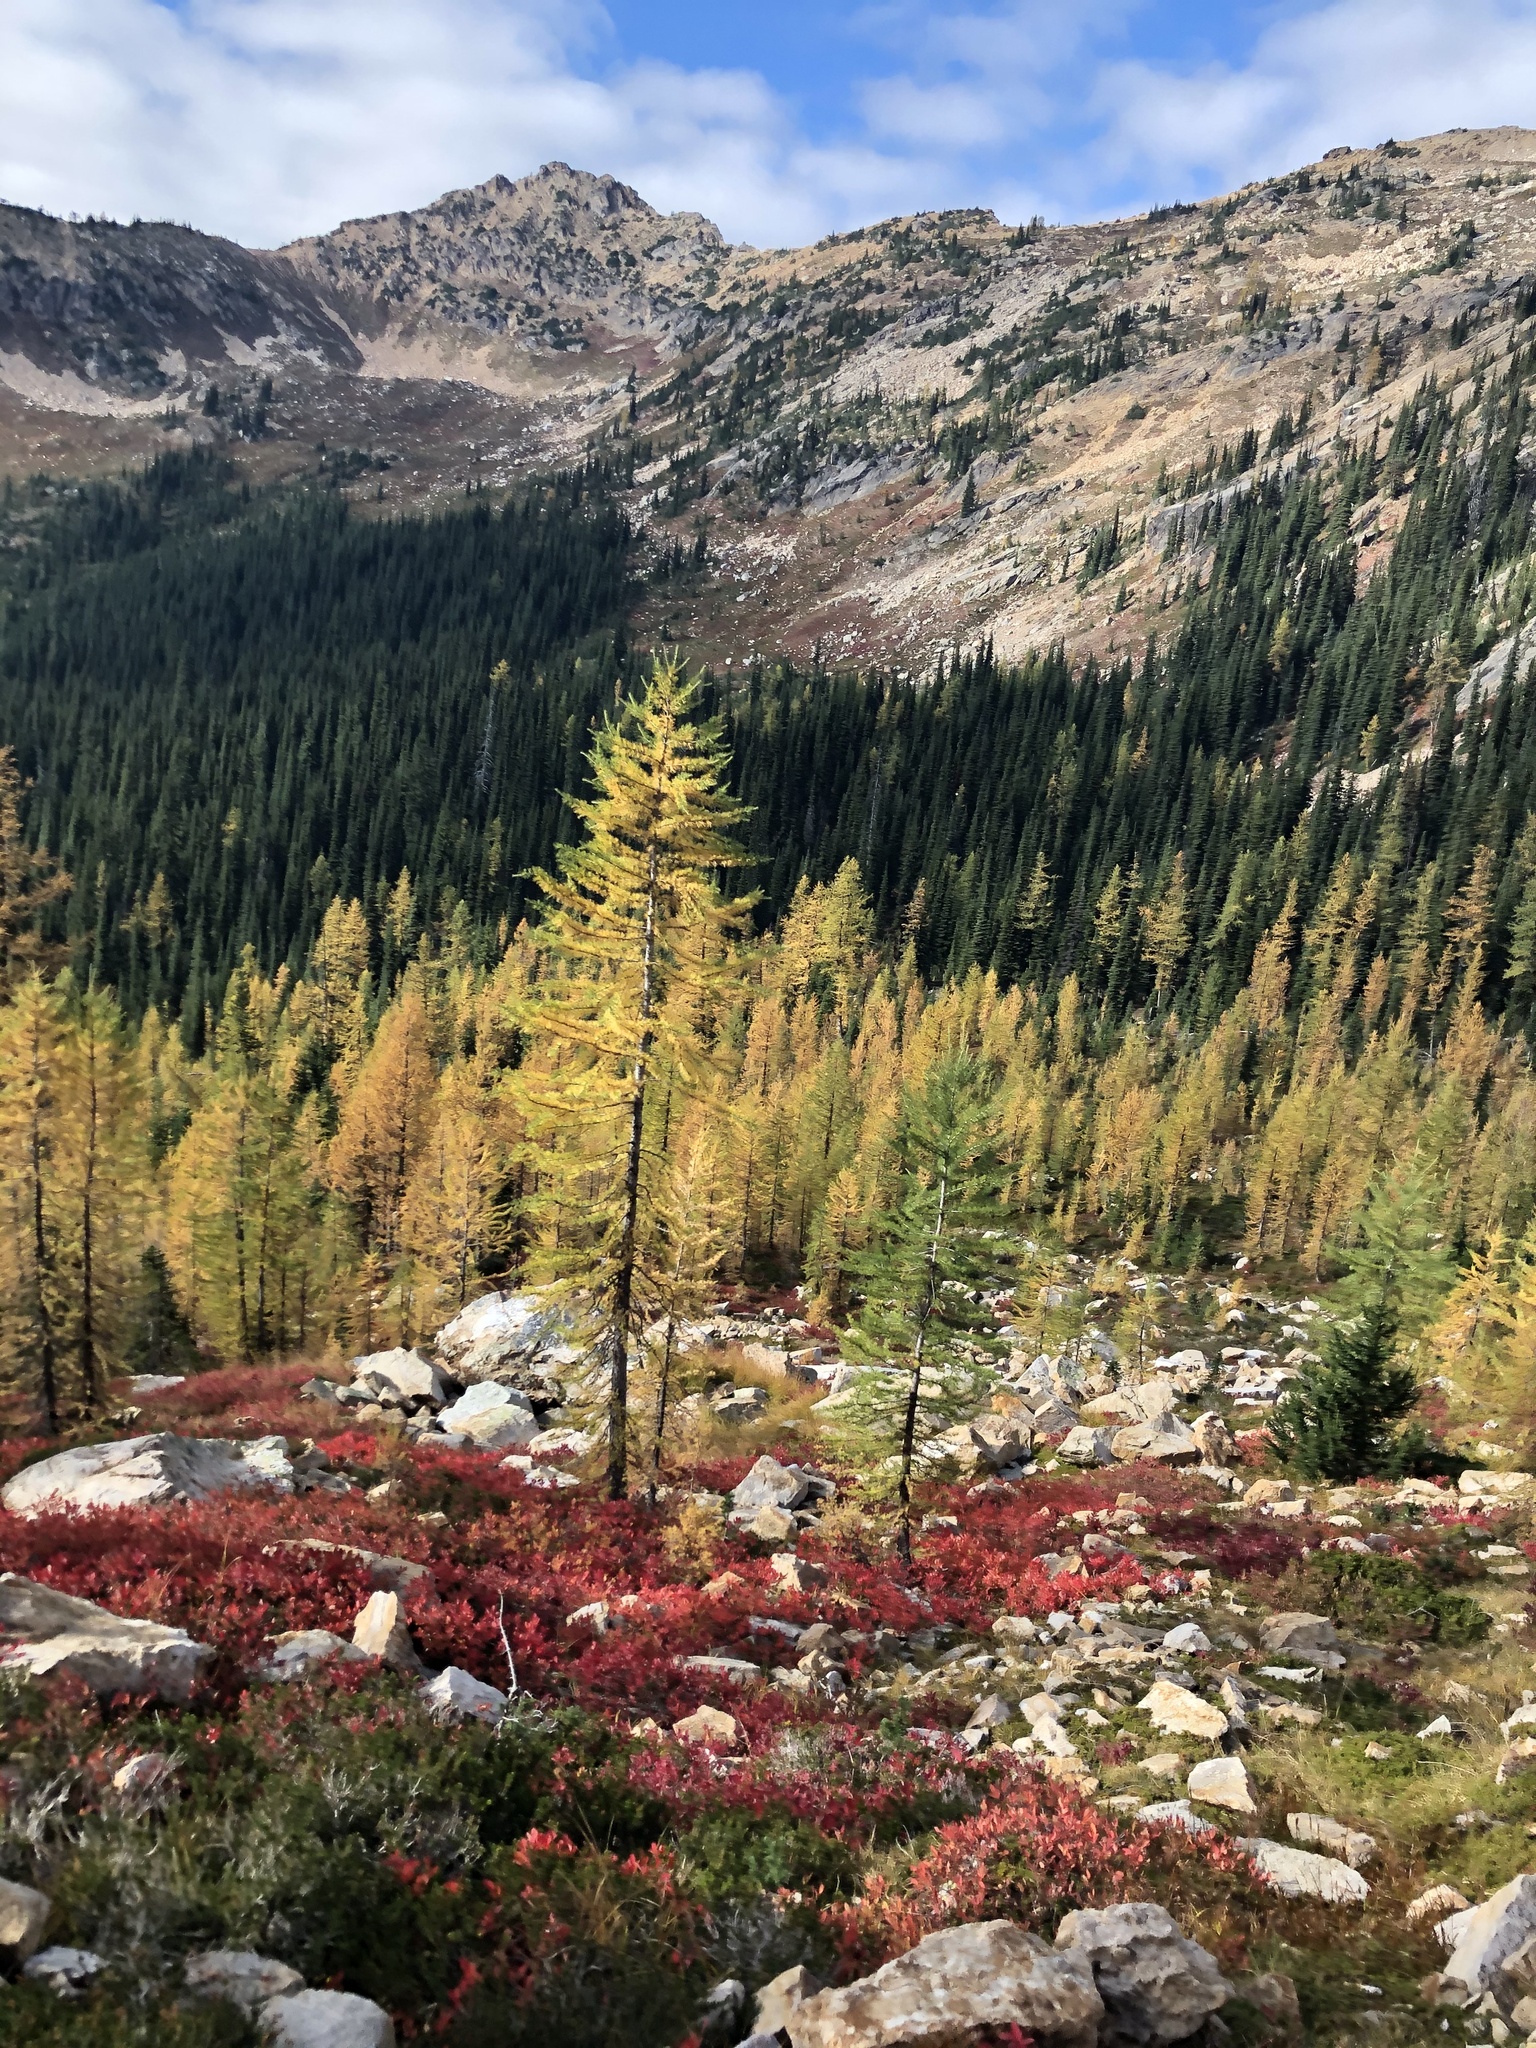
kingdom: Plantae
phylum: Tracheophyta
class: Pinopsida
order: Pinales
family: Pinaceae
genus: Larix
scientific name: Larix lyallii
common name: Alpine larch
